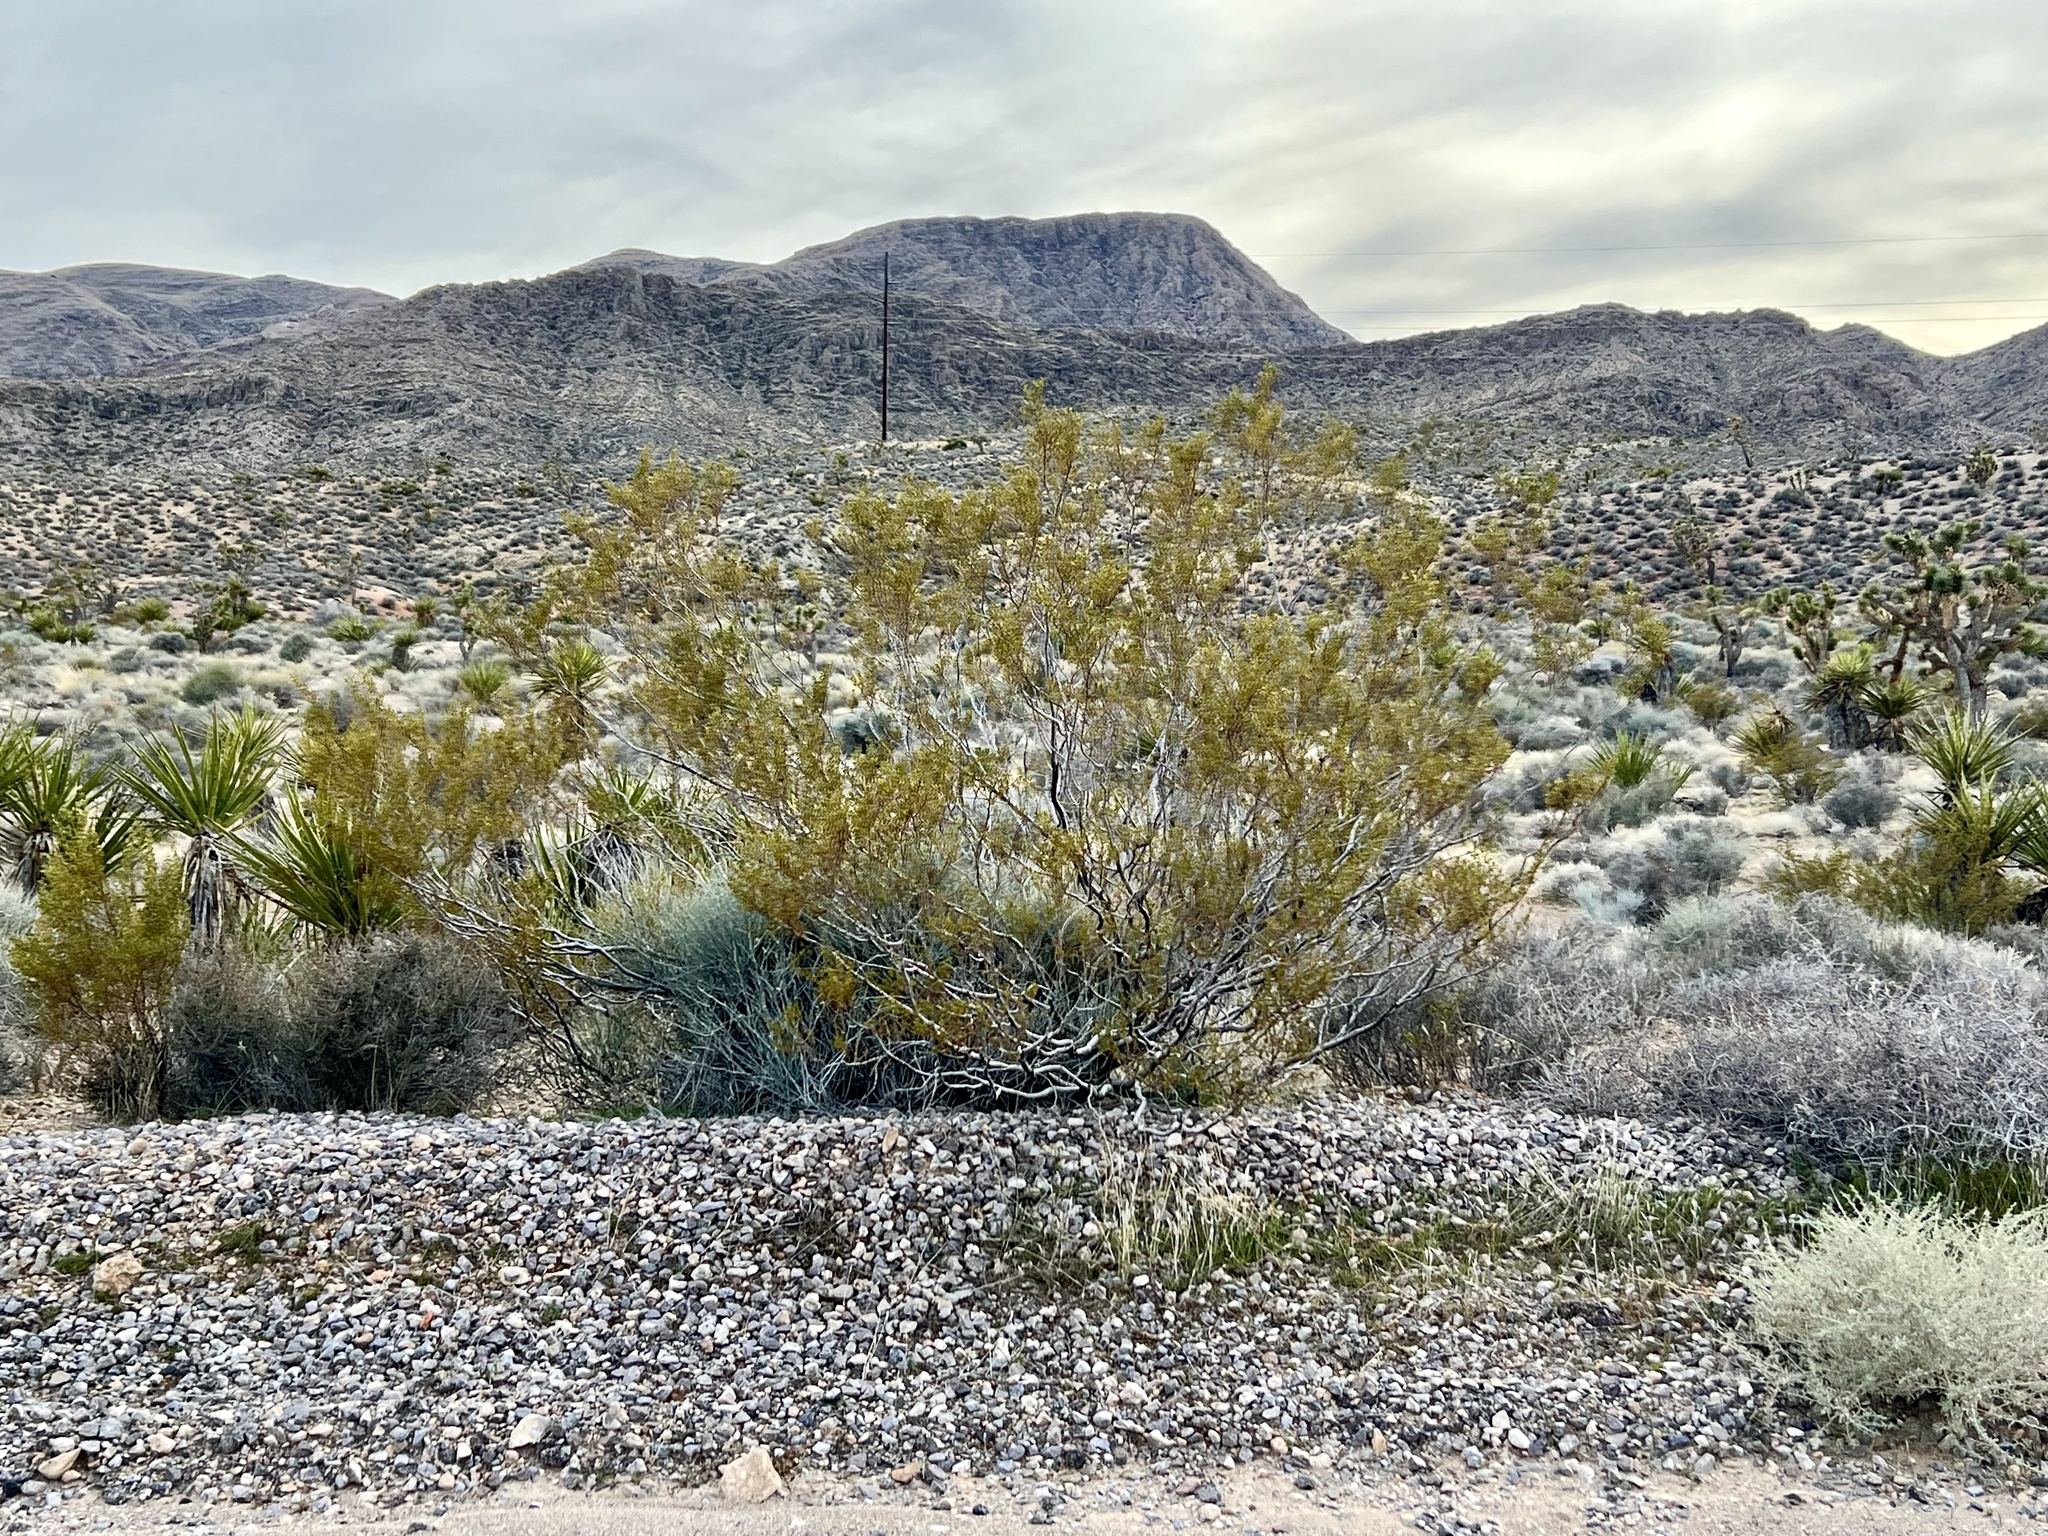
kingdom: Plantae
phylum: Tracheophyta
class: Magnoliopsida
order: Zygophyllales
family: Zygophyllaceae
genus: Larrea
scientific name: Larrea tridentata
